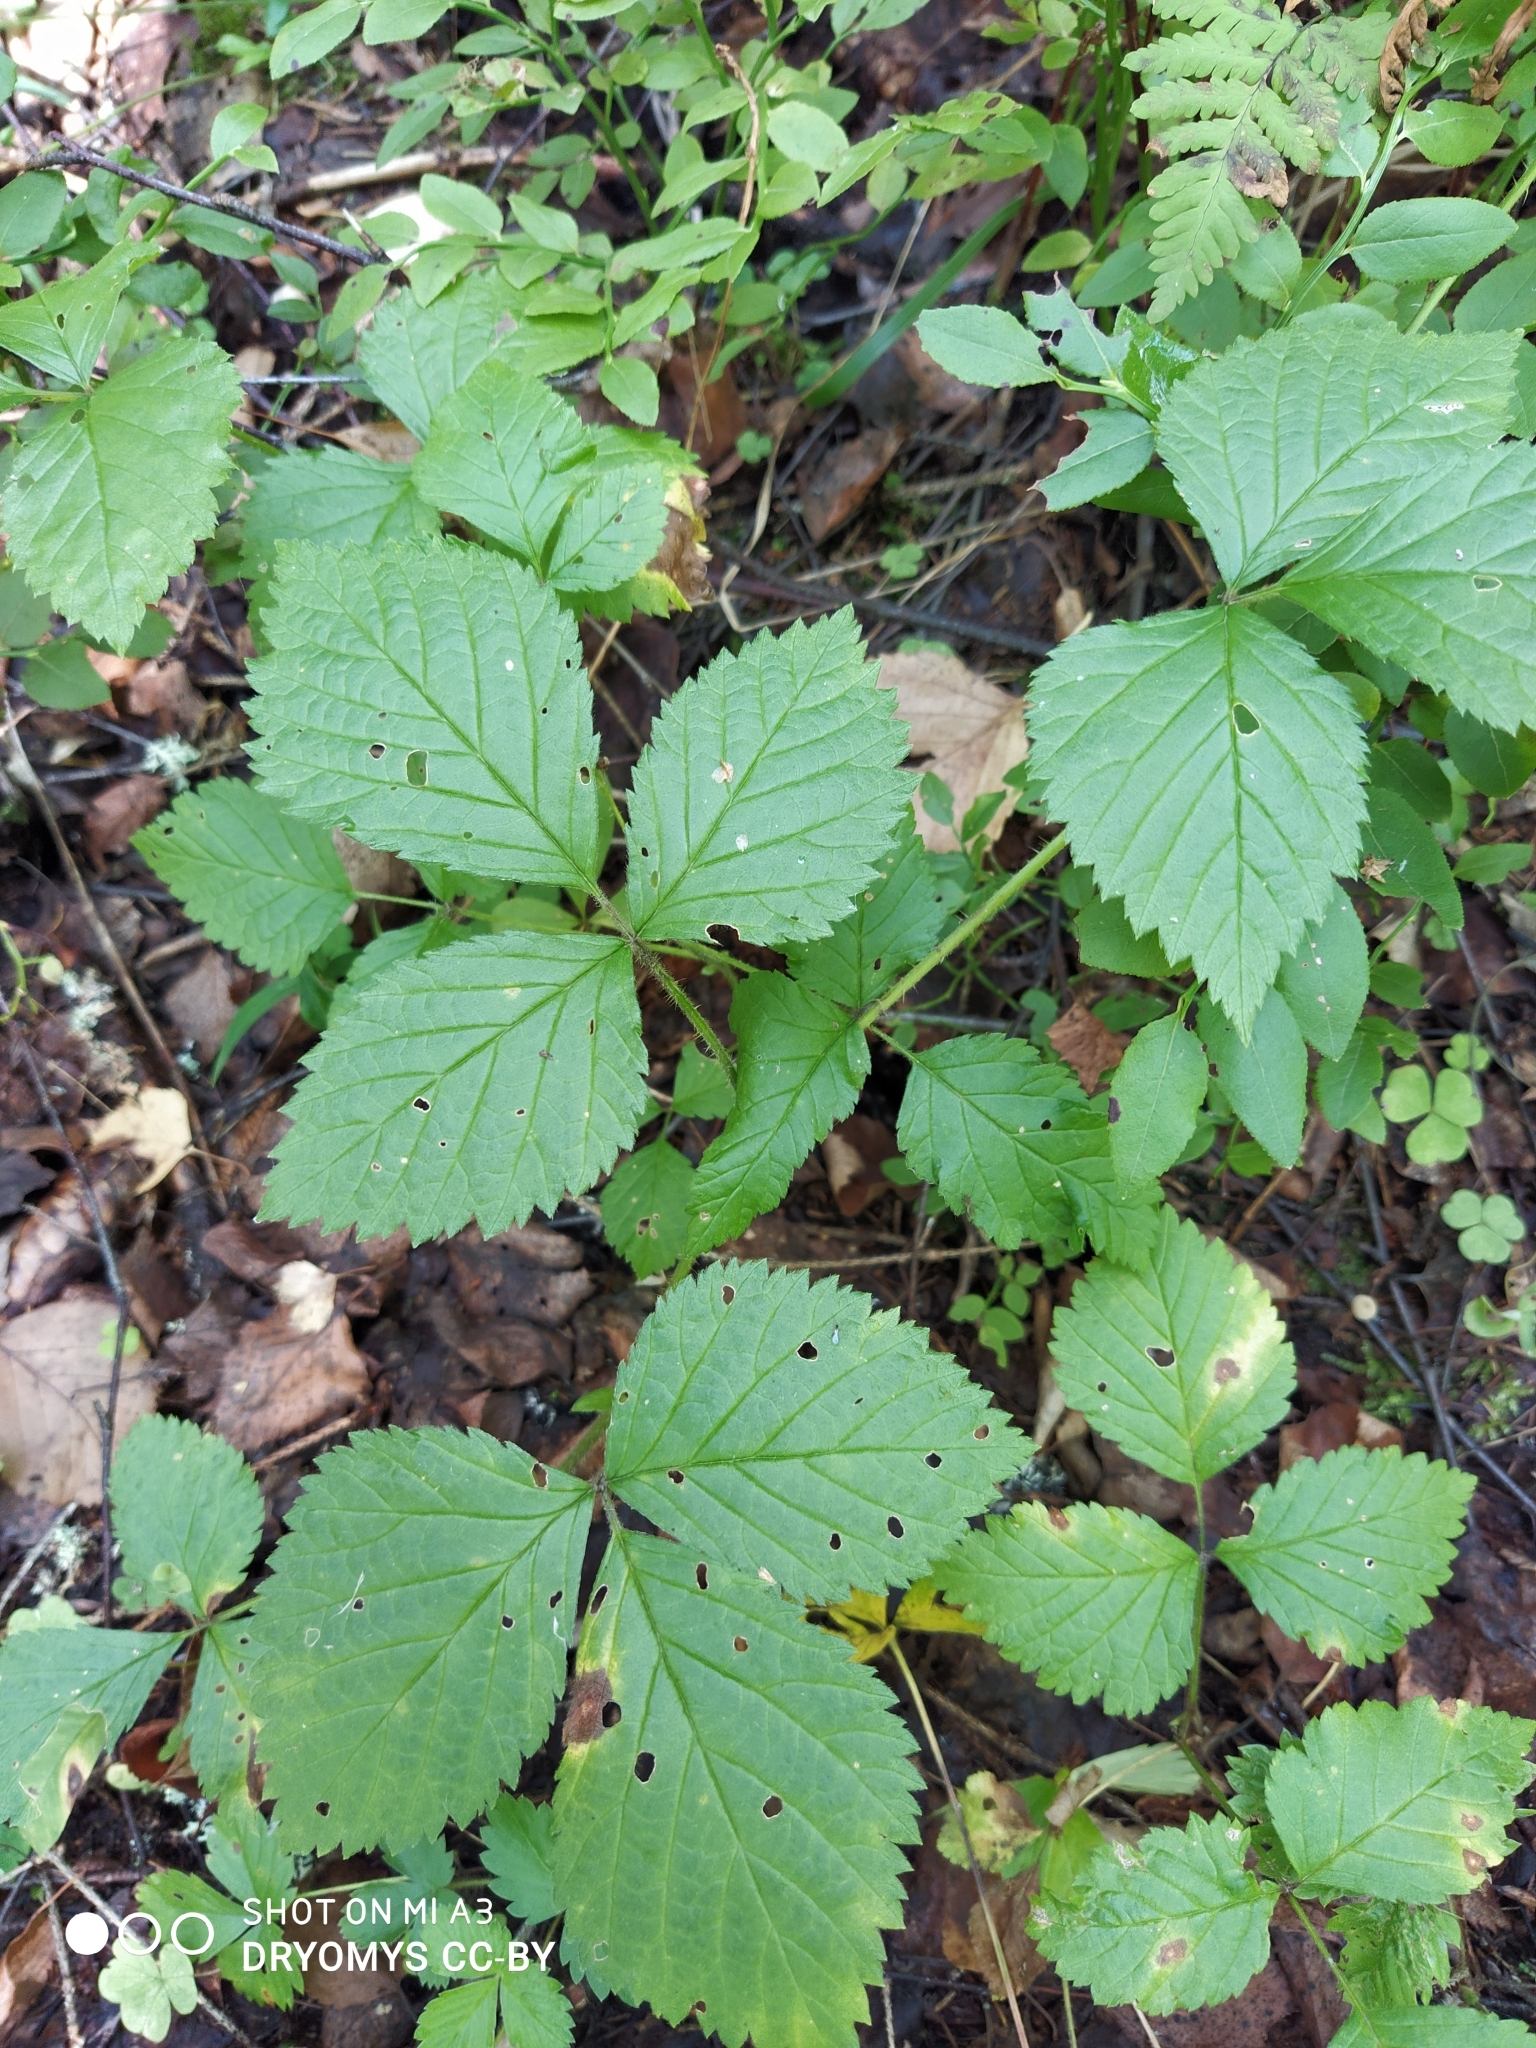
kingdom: Plantae
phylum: Tracheophyta
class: Magnoliopsida
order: Rosales
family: Rosaceae
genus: Rubus
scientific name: Rubus saxatilis
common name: Stone bramble
